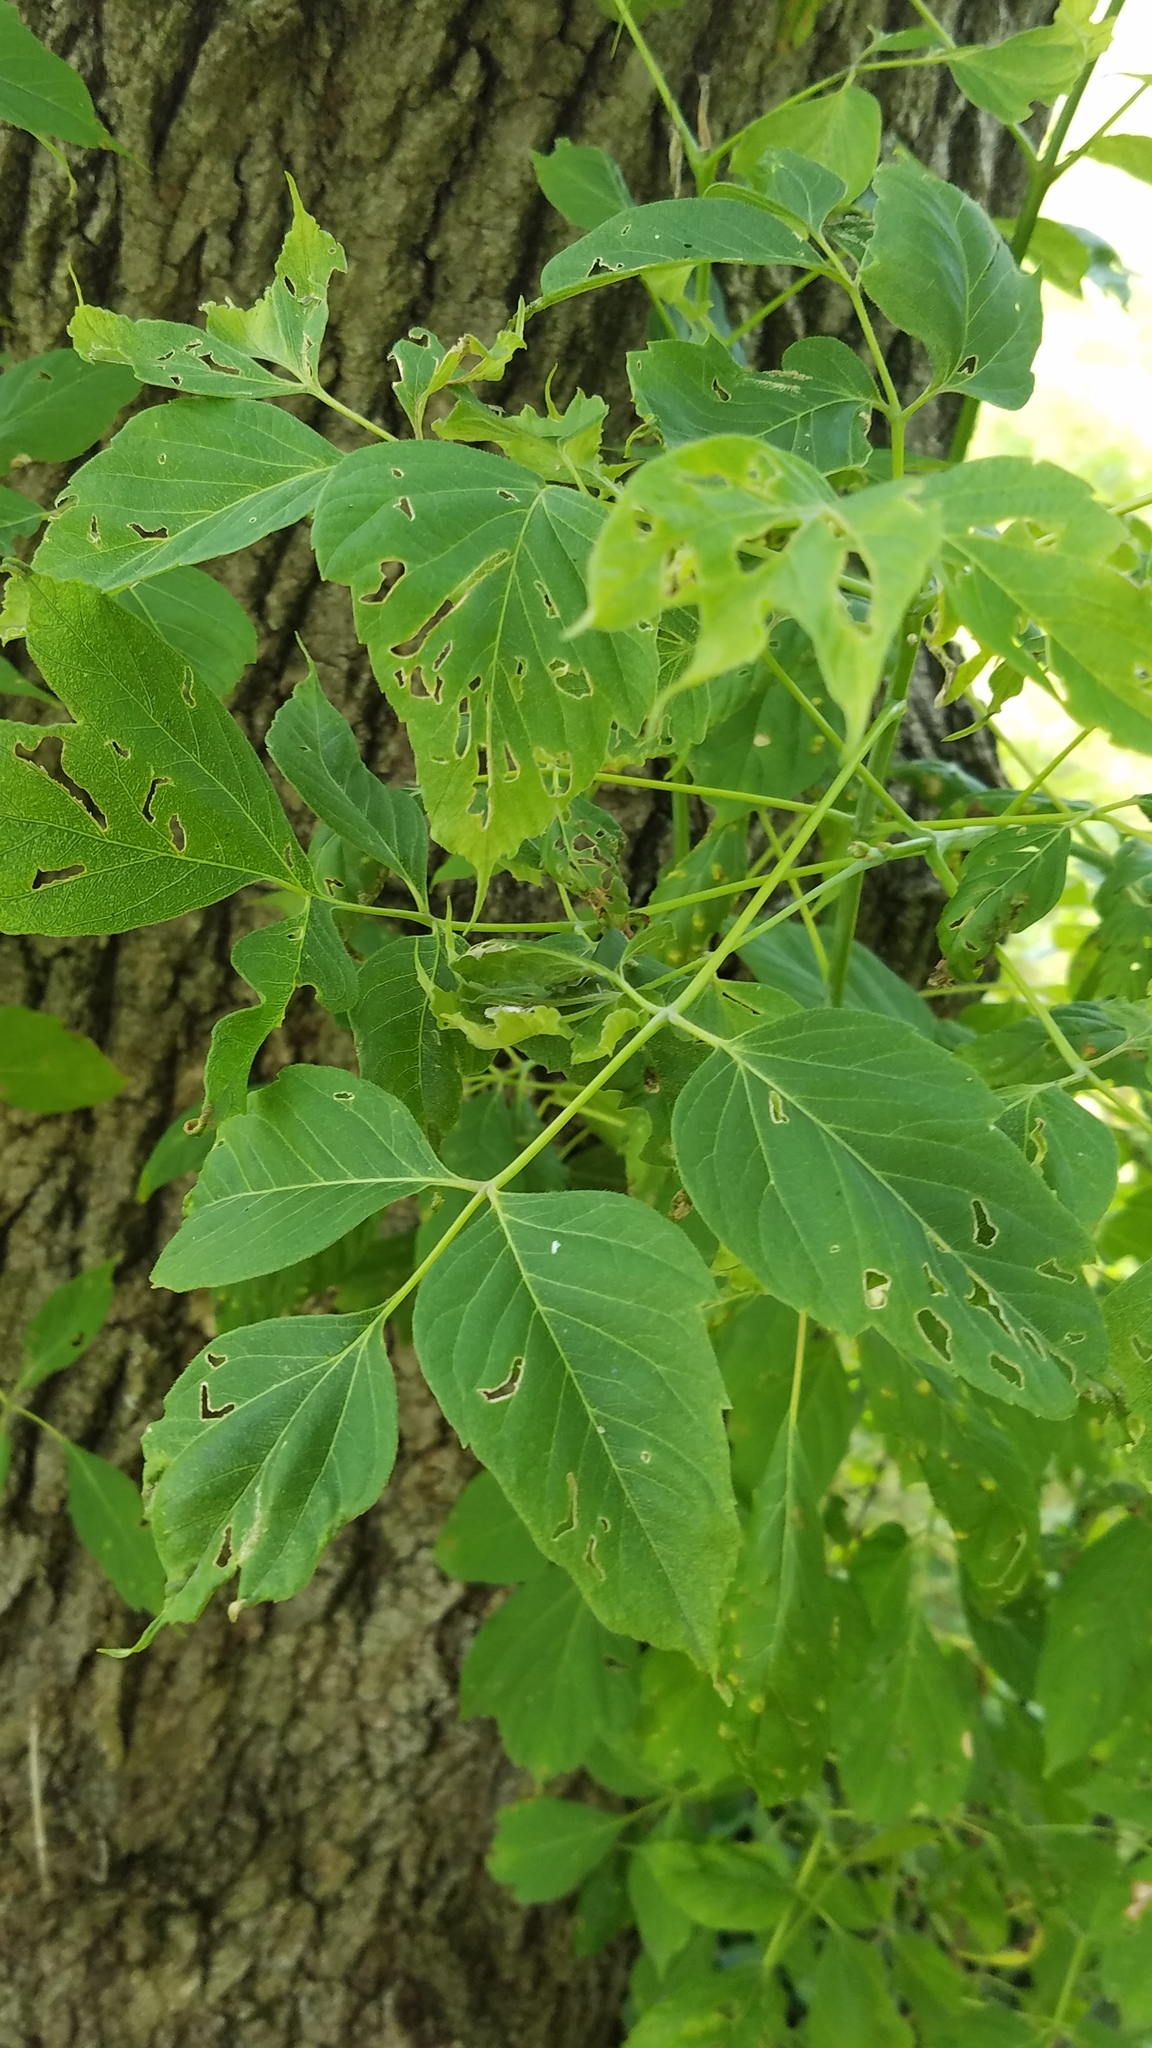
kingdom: Plantae
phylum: Tracheophyta
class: Magnoliopsida
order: Sapindales
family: Sapindaceae
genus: Acer
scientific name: Acer negundo
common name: Ashleaf maple
